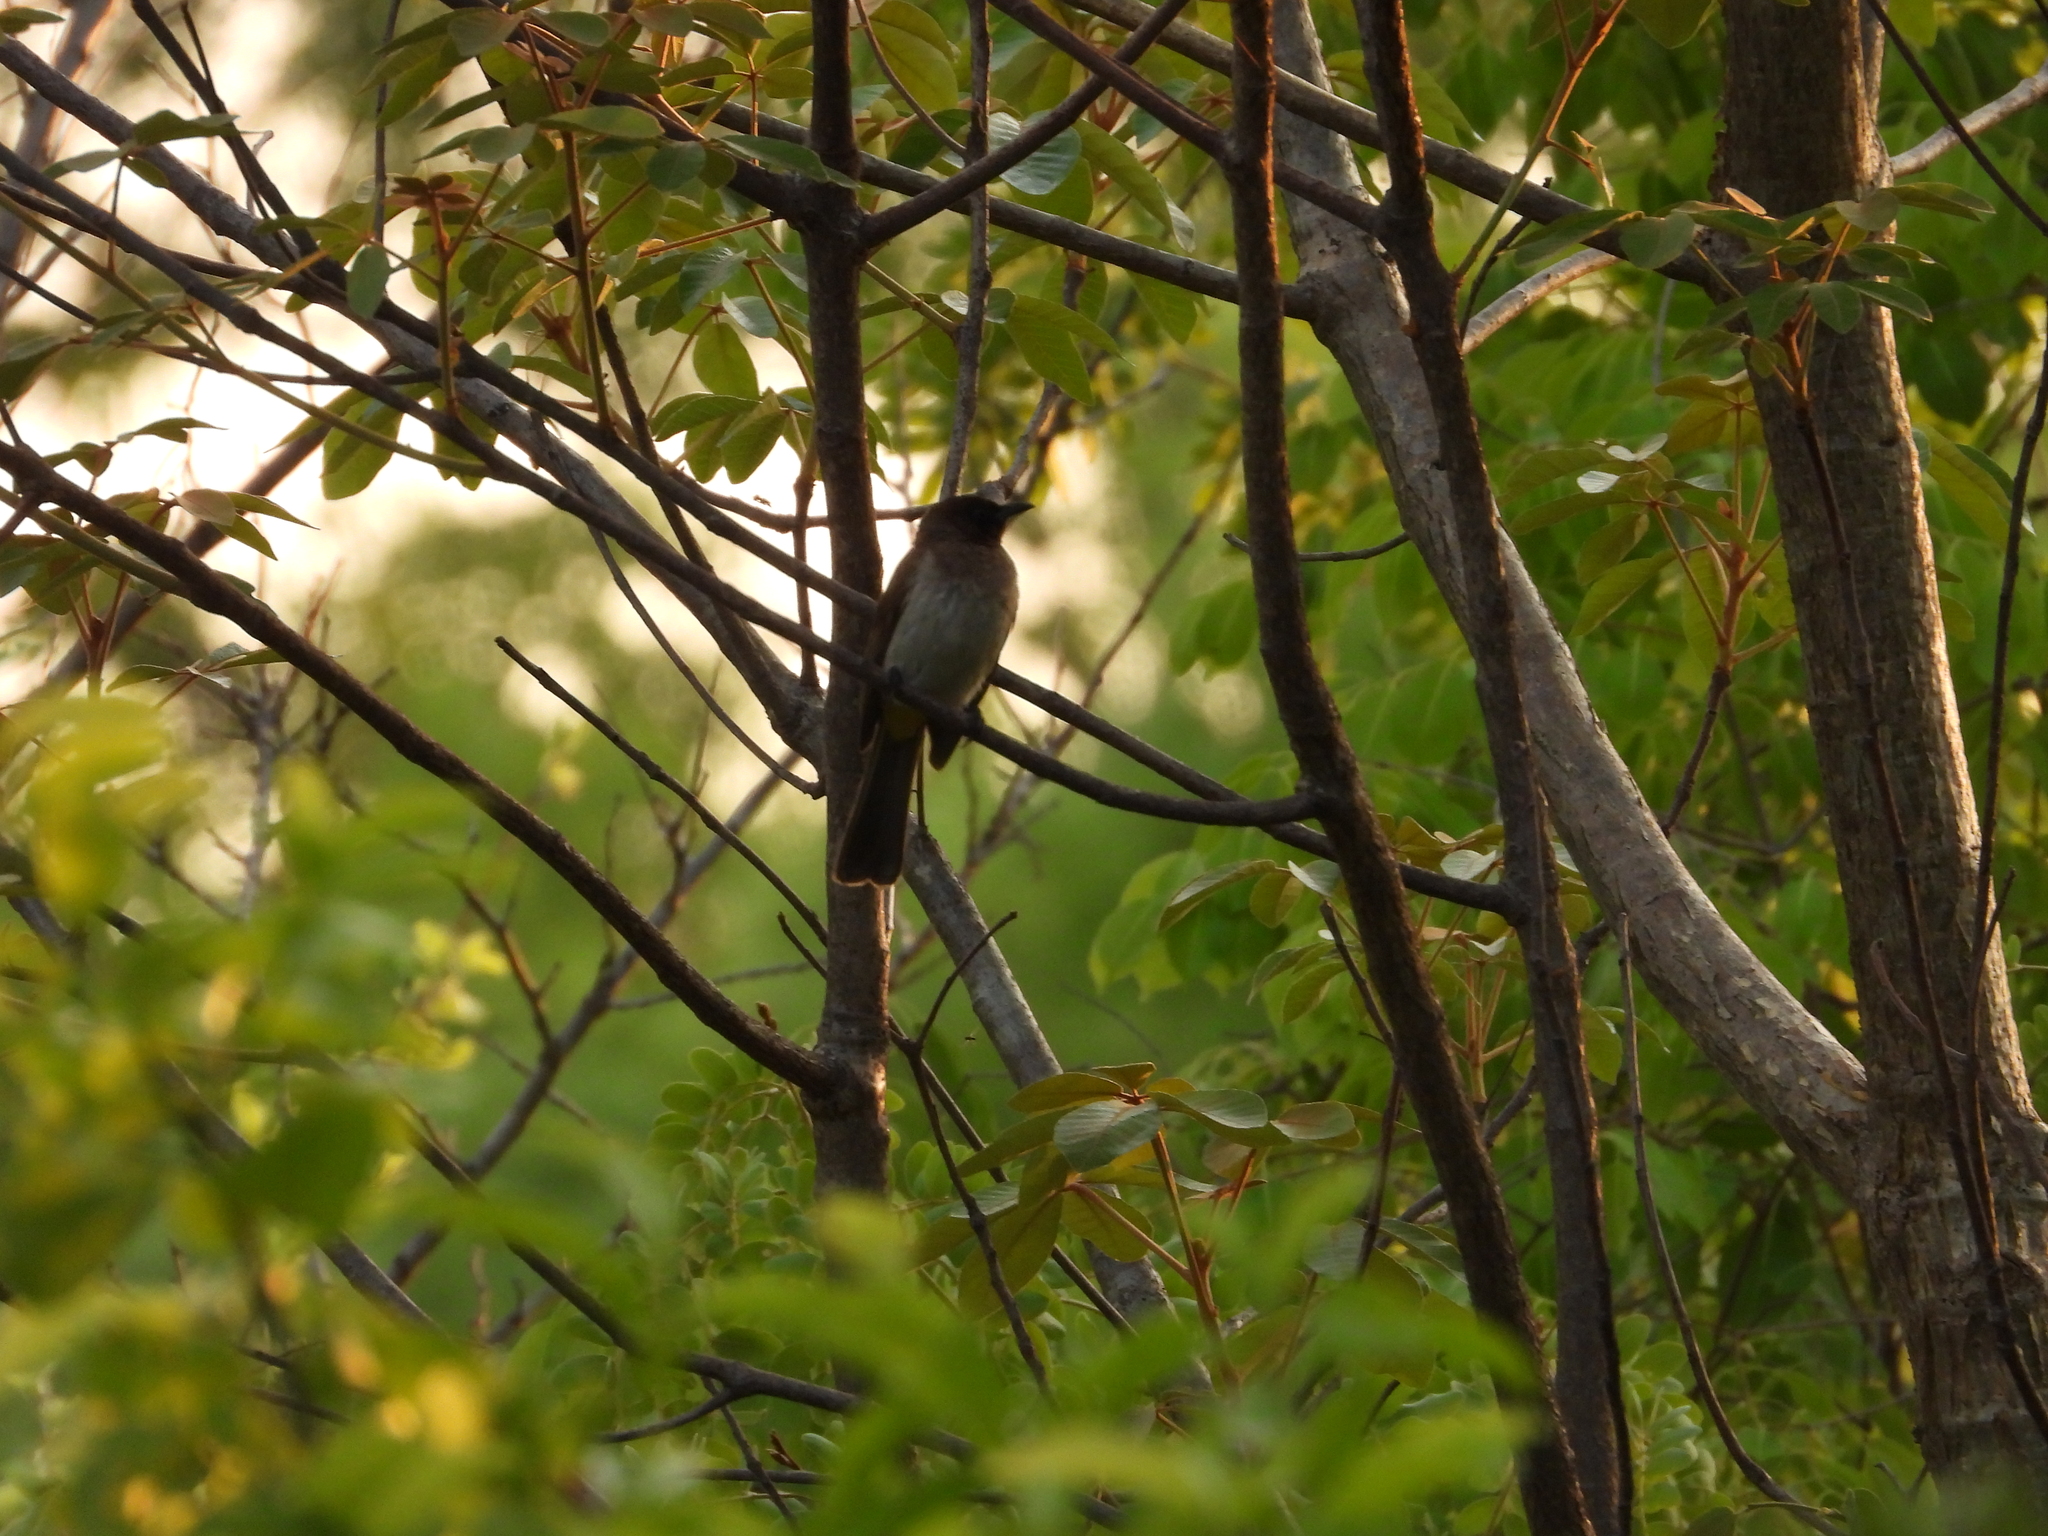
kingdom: Animalia
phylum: Chordata
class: Aves
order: Passeriformes
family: Pycnonotidae
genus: Pycnonotus
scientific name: Pycnonotus barbatus
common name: Common bulbul
